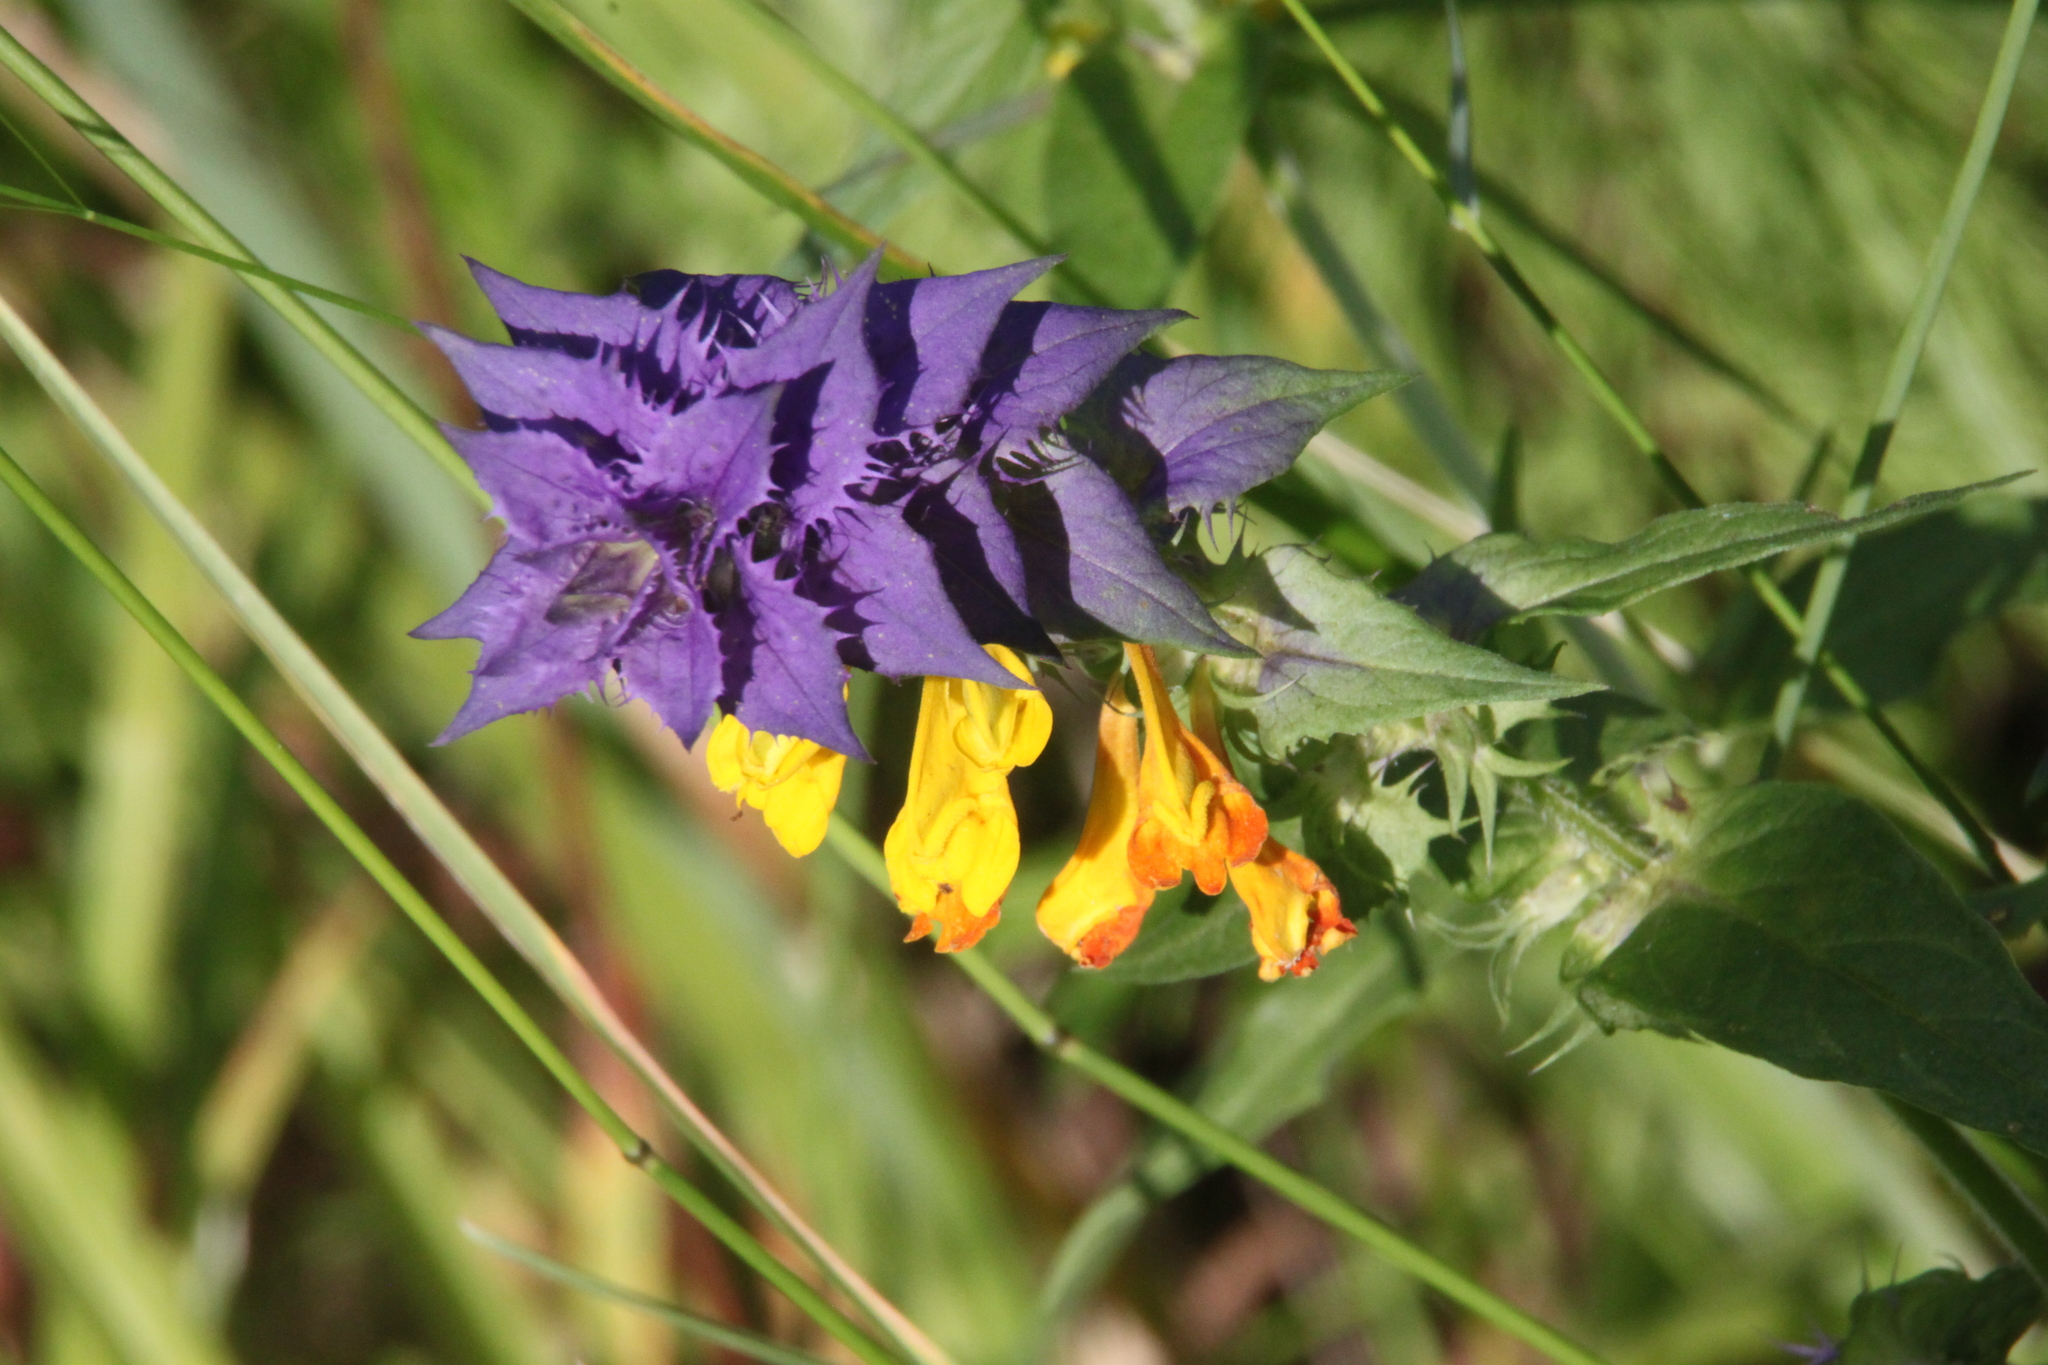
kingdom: Plantae
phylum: Tracheophyta
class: Magnoliopsida
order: Lamiales
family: Orobanchaceae
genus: Melampyrum
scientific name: Melampyrum nemorosum
